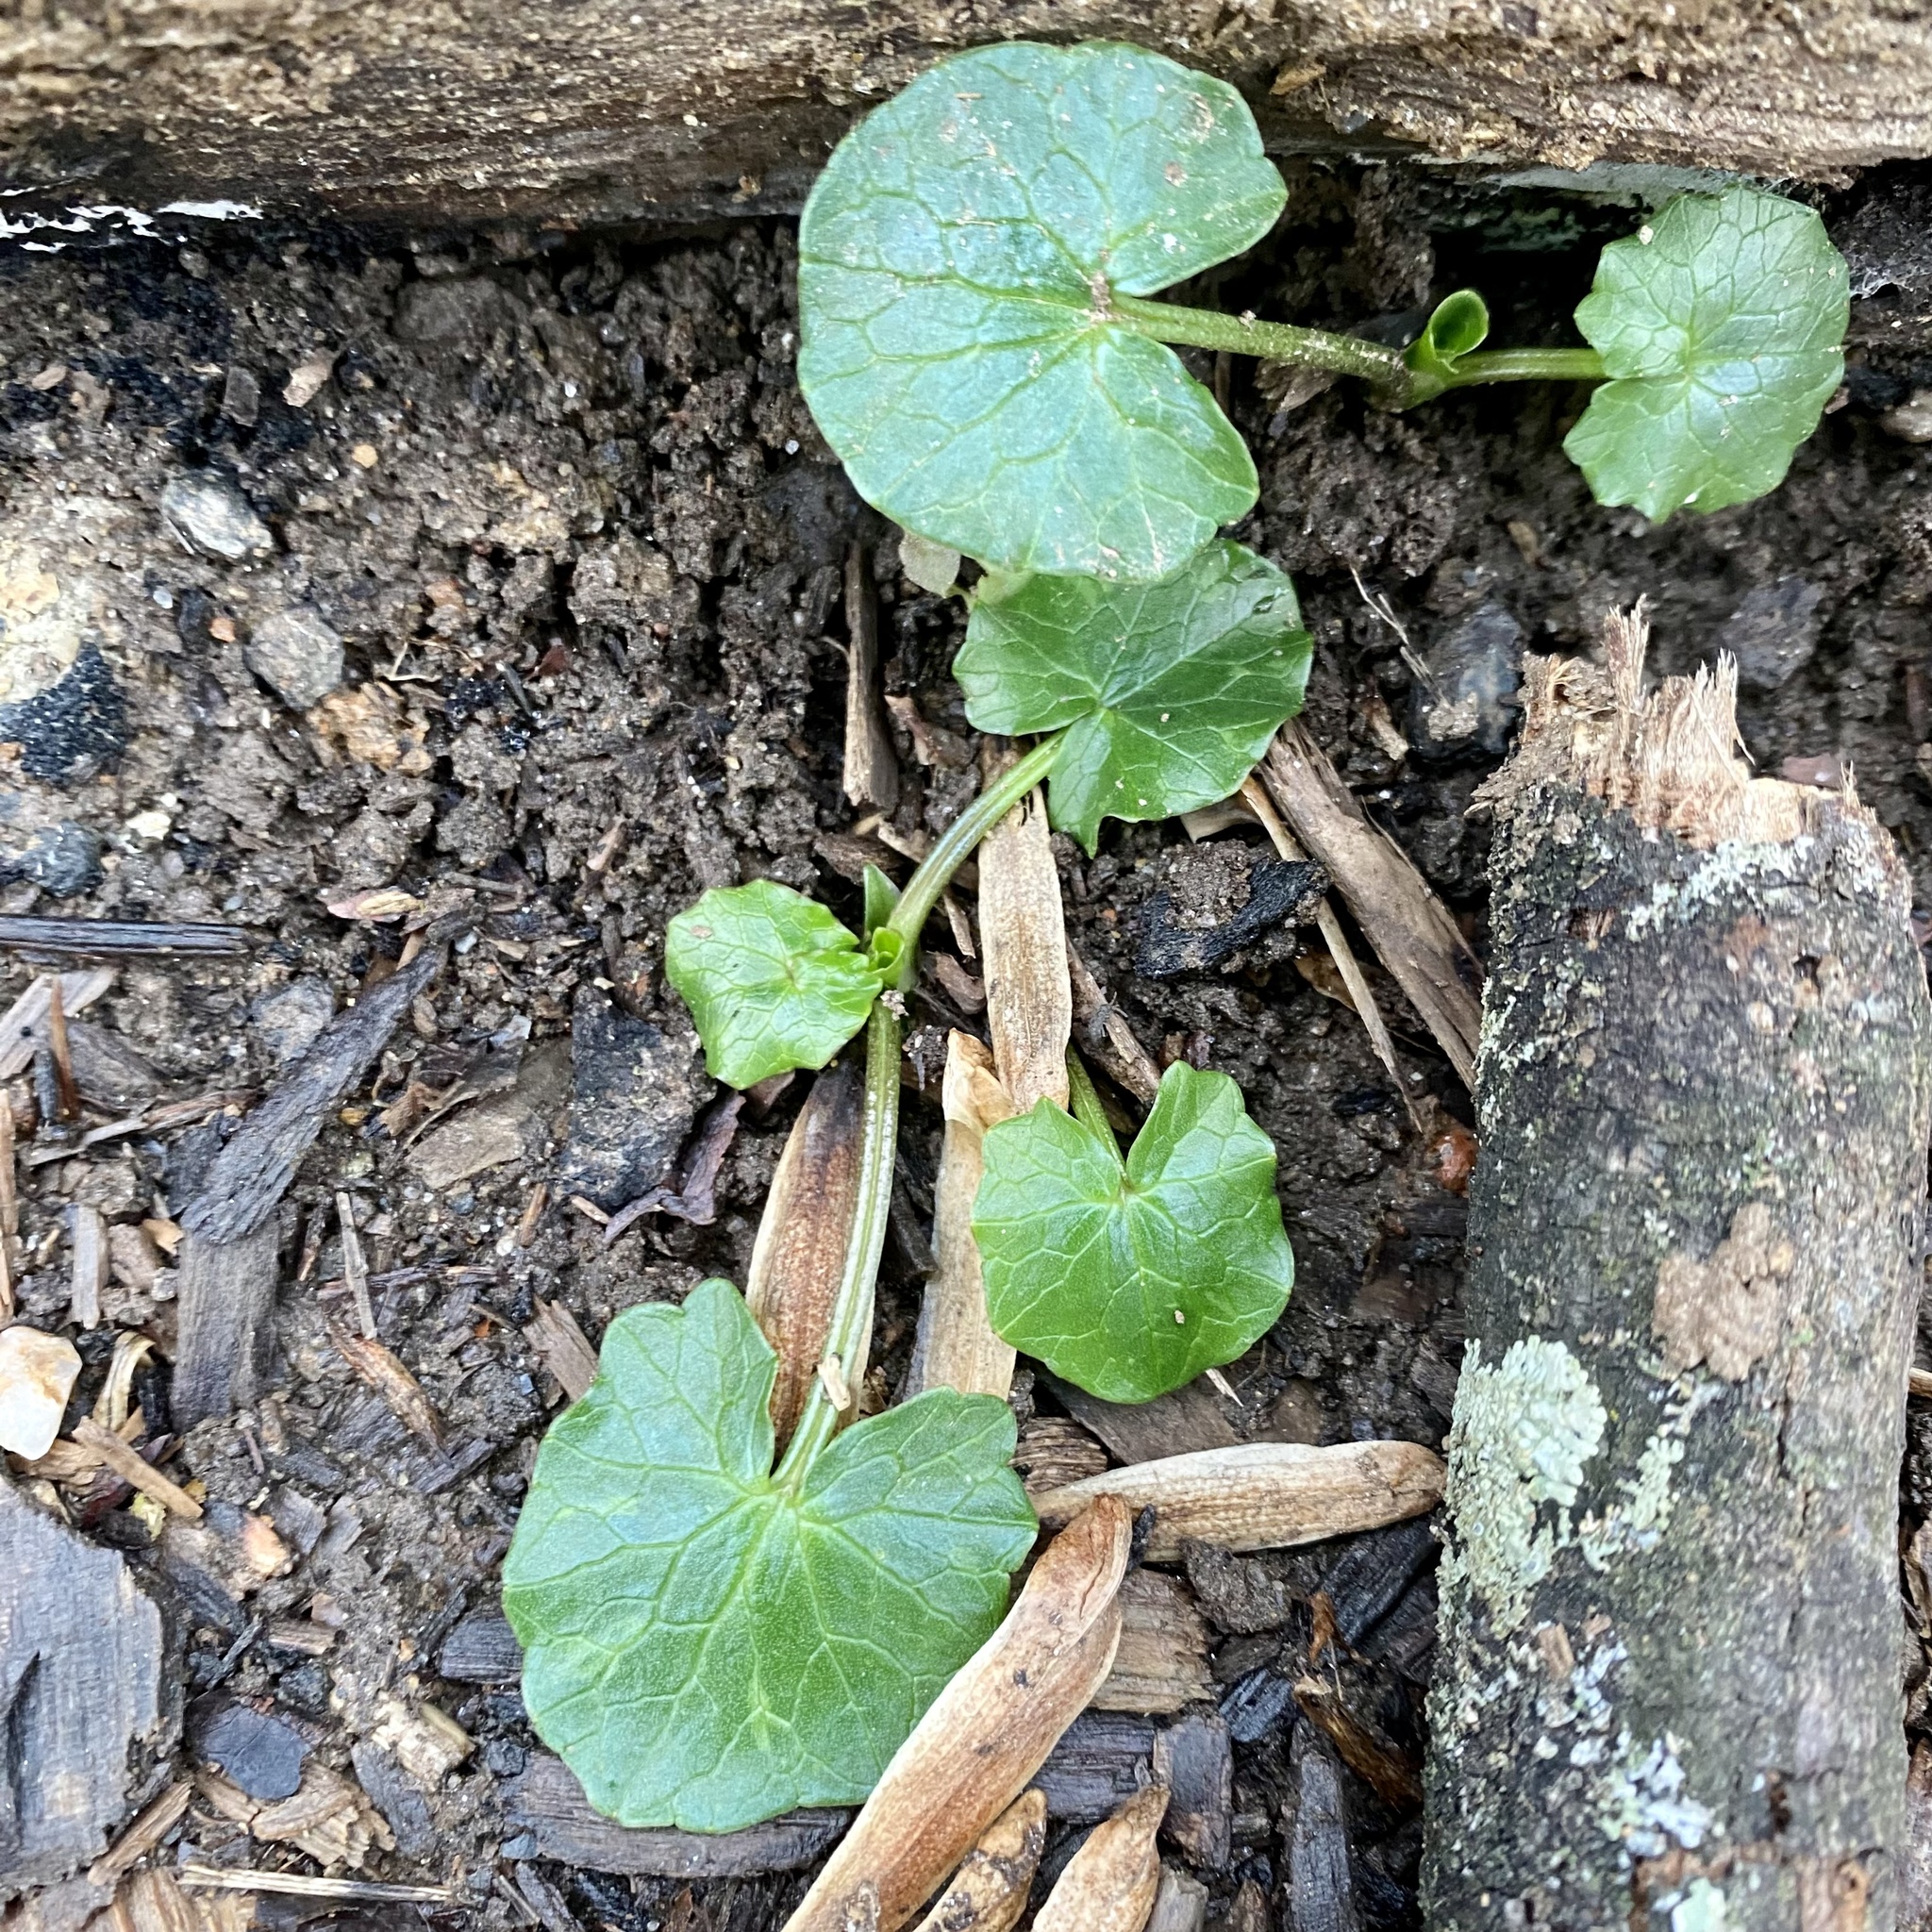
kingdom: Plantae
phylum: Tracheophyta
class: Magnoliopsida
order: Ranunculales
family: Ranunculaceae
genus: Ficaria
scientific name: Ficaria verna
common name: Lesser celandine
